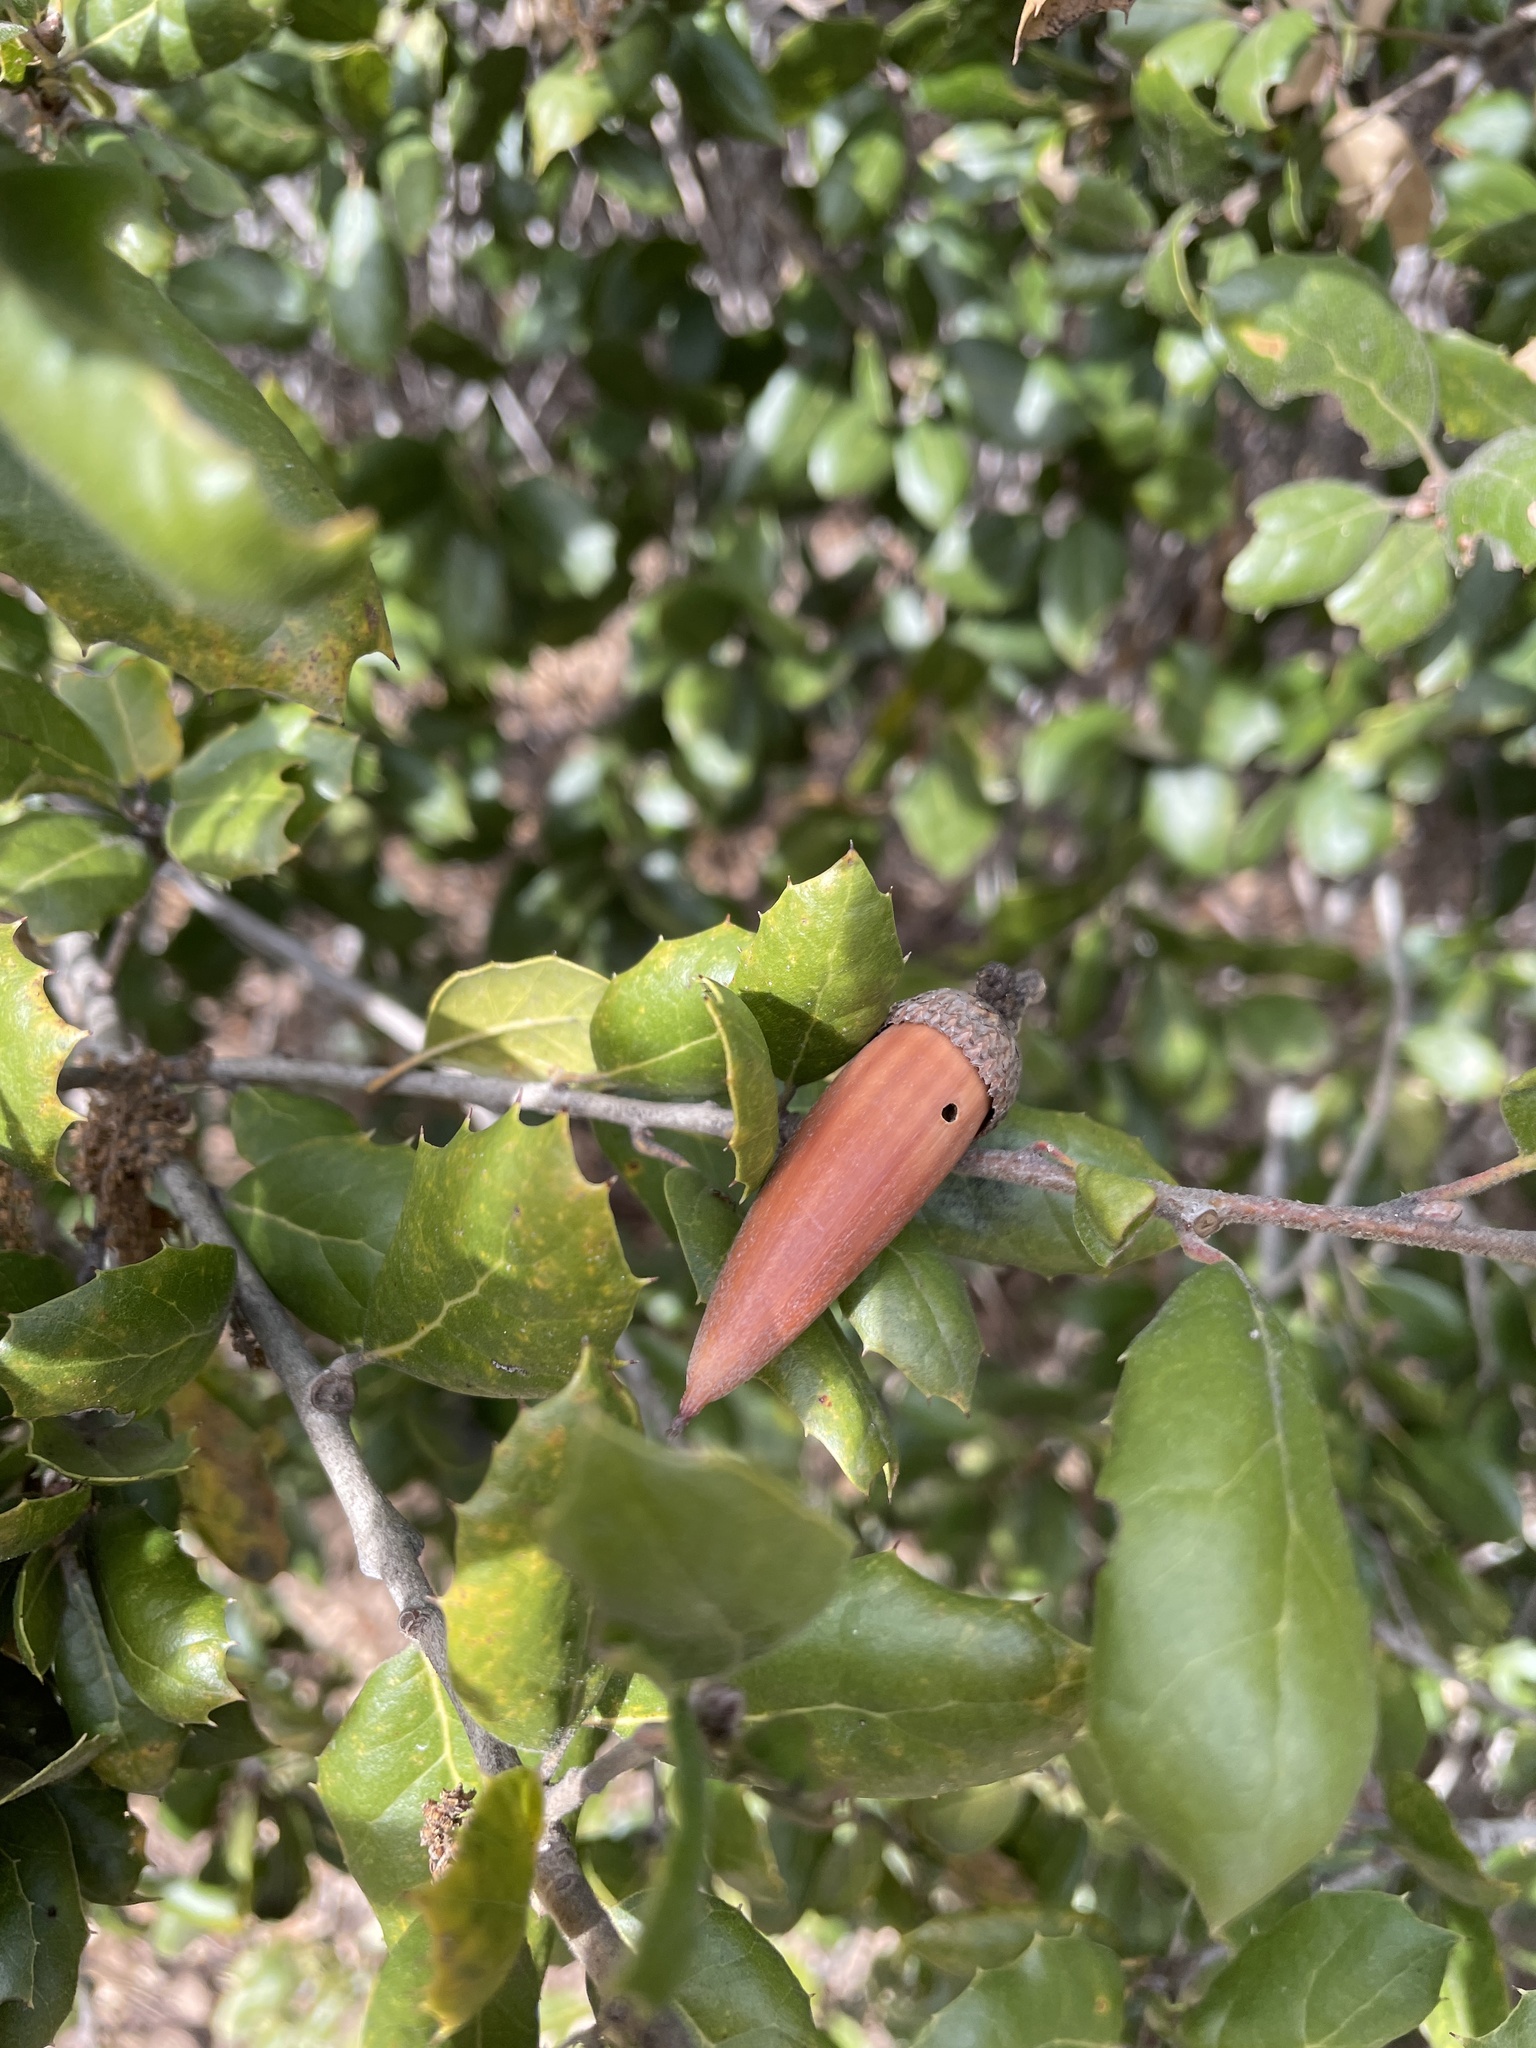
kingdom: Plantae
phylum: Tracheophyta
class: Magnoliopsida
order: Fagales
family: Fagaceae
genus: Quercus
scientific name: Quercus agrifolia
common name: California live oak
